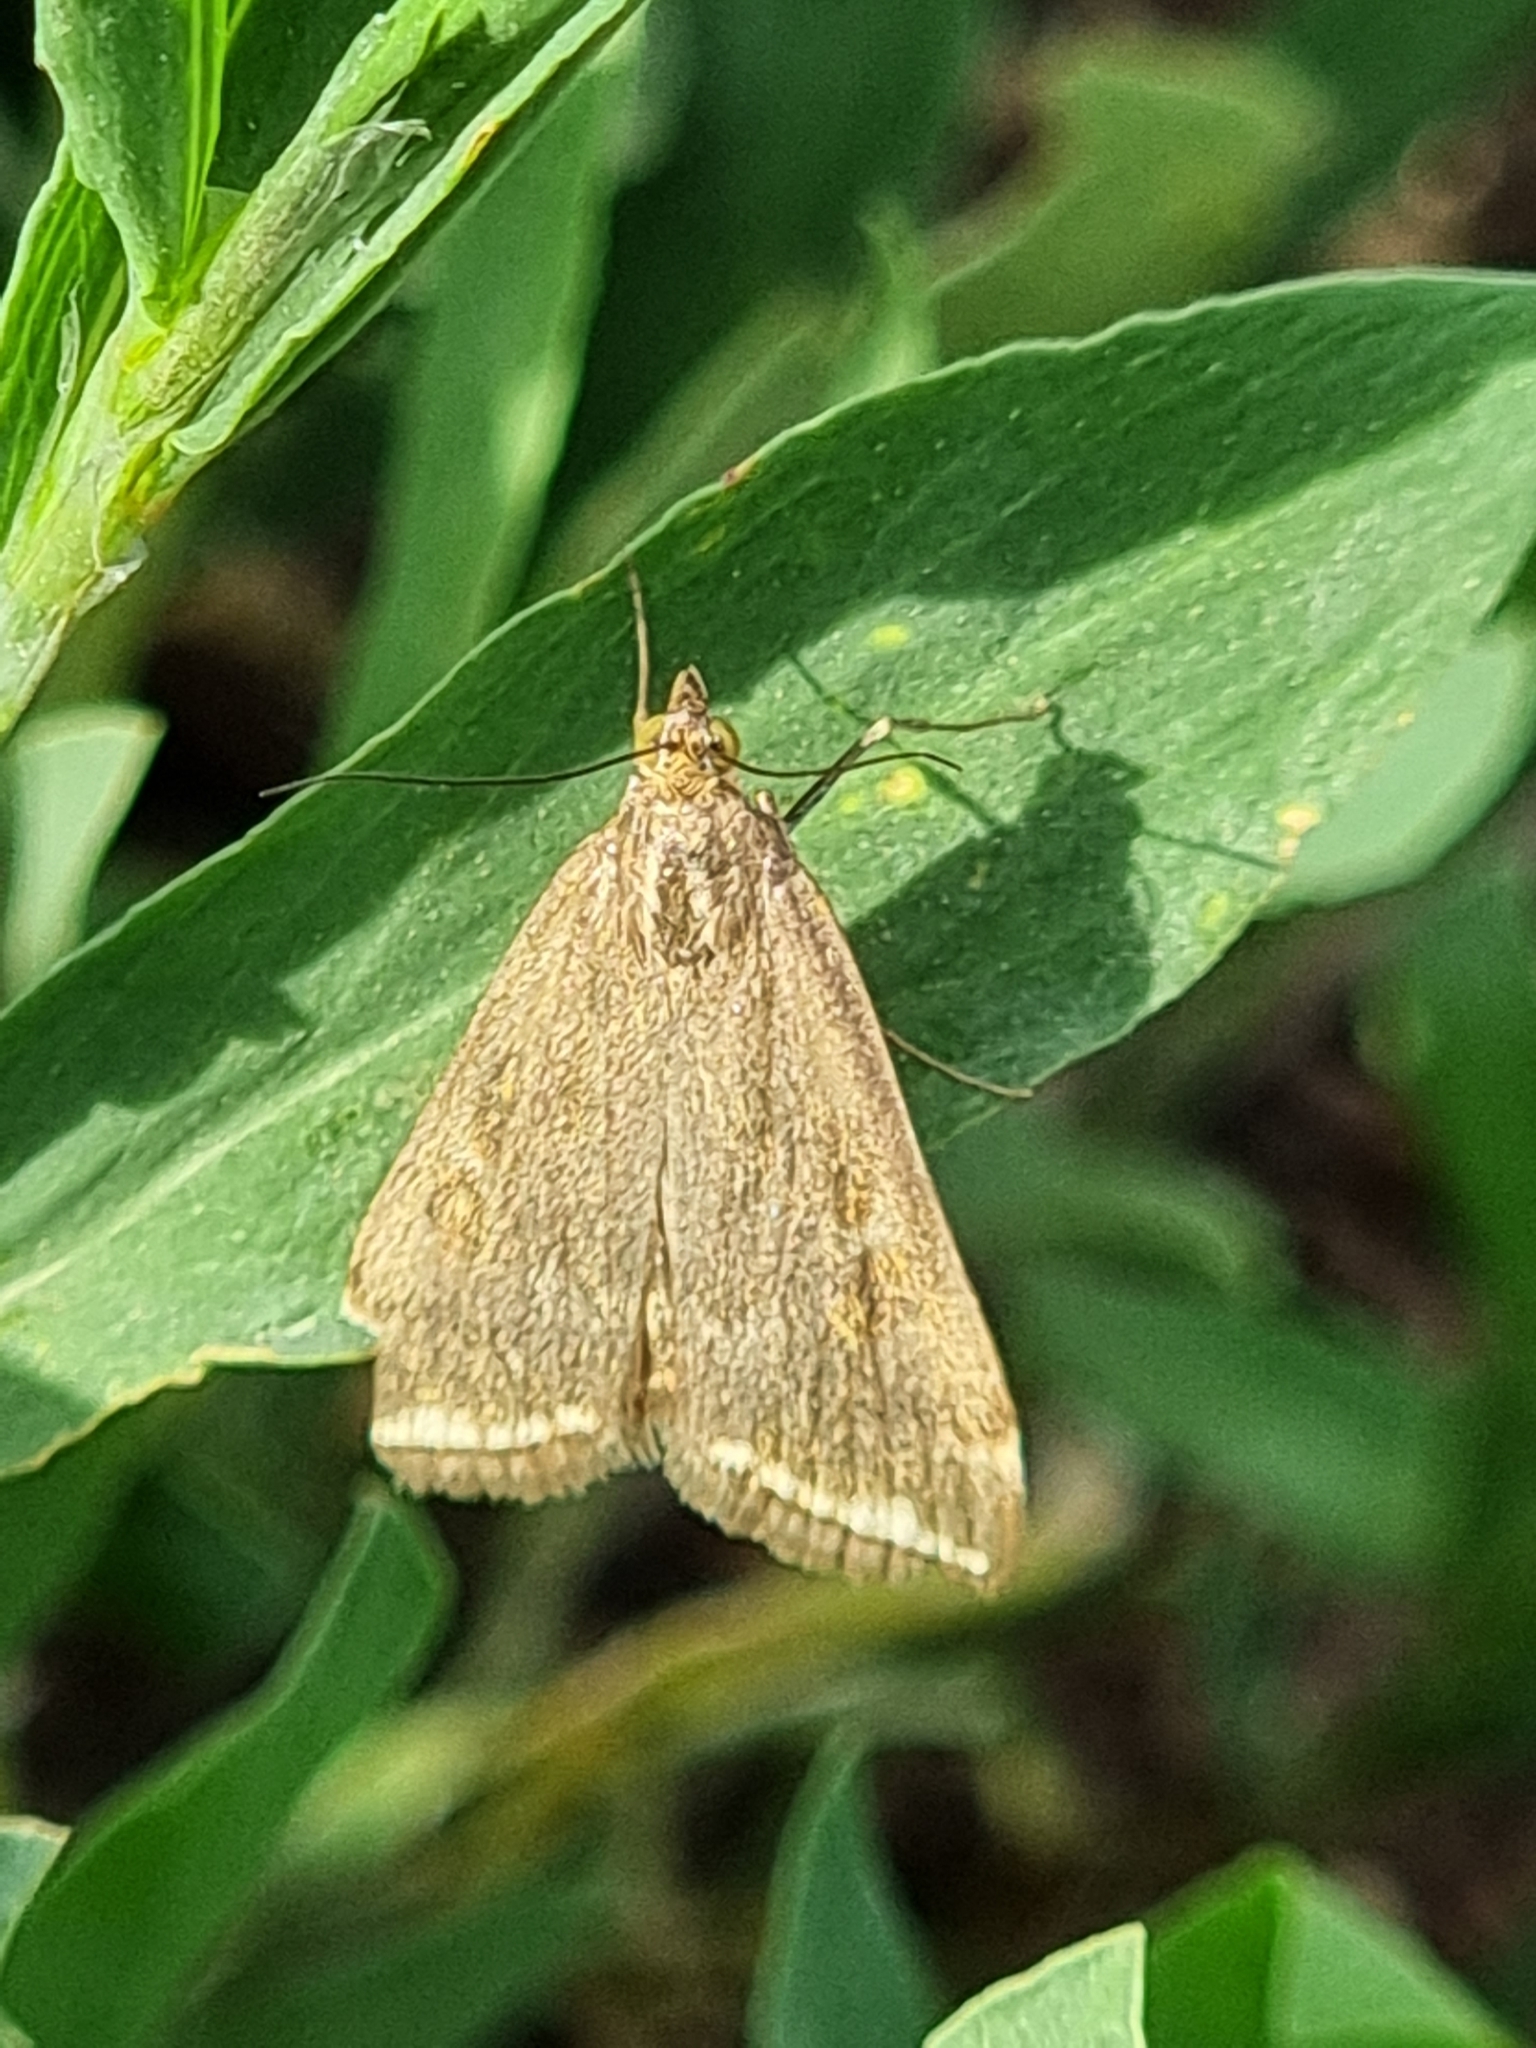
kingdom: Animalia
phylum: Arthropoda
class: Insecta
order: Lepidoptera
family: Crambidae
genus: Loxostege
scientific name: Loxostege sticticalis
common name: Crambid moth
